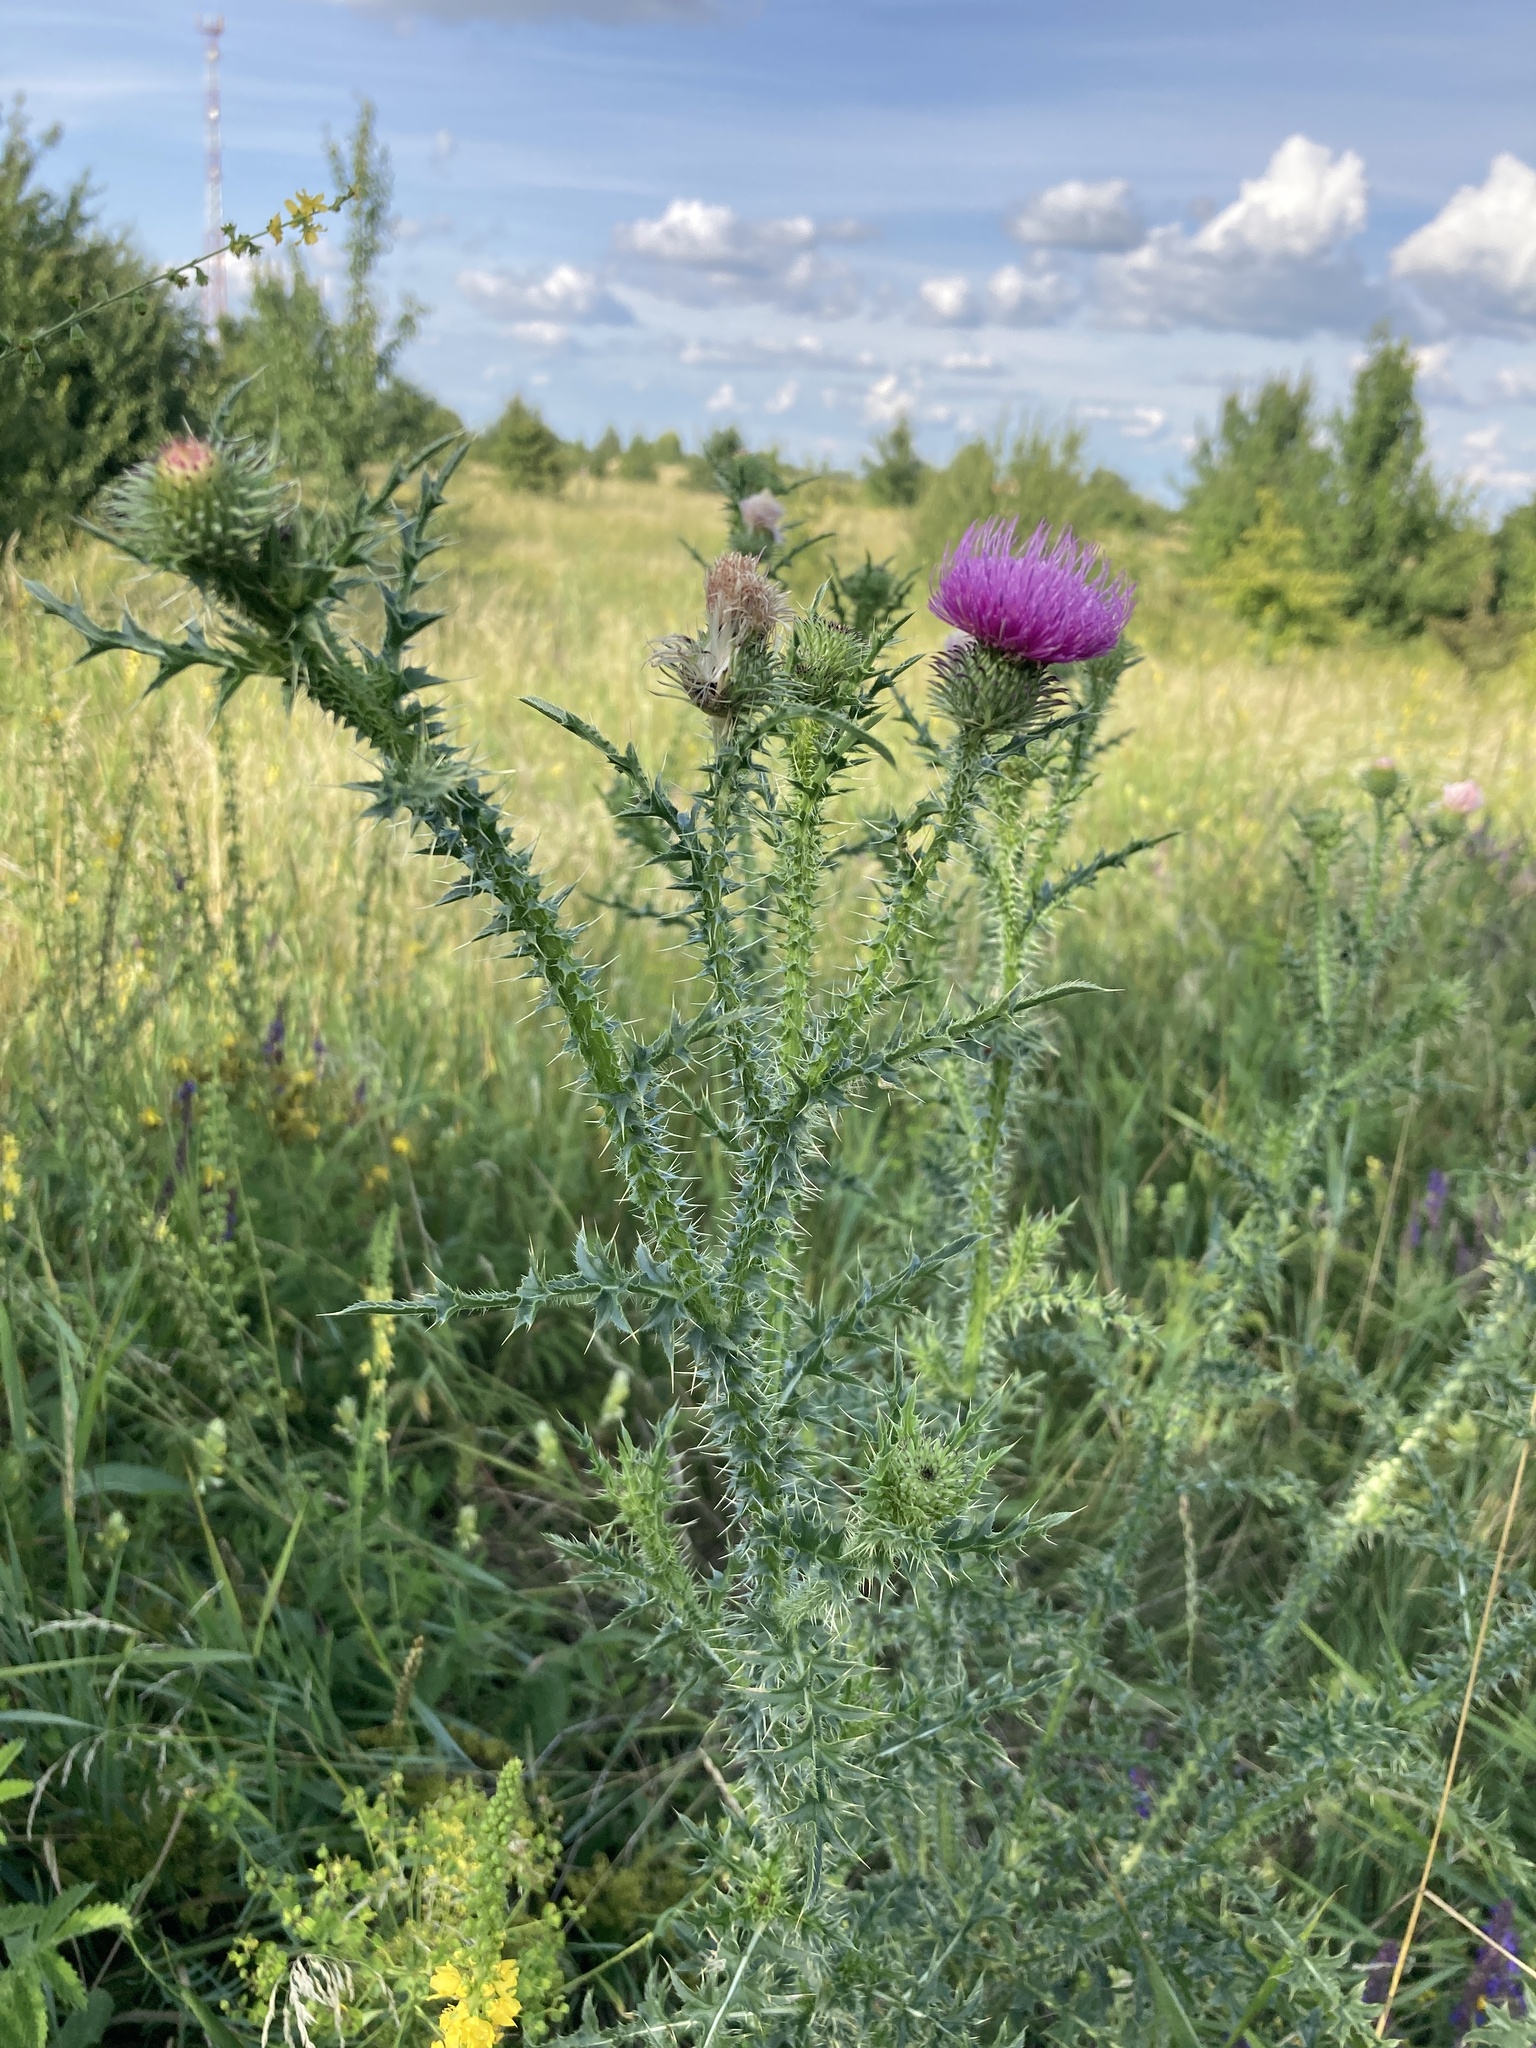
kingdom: Plantae
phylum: Tracheophyta
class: Magnoliopsida
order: Asterales
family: Asteraceae
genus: Carduus
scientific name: Carduus acanthoides
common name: Plumeless thistle
